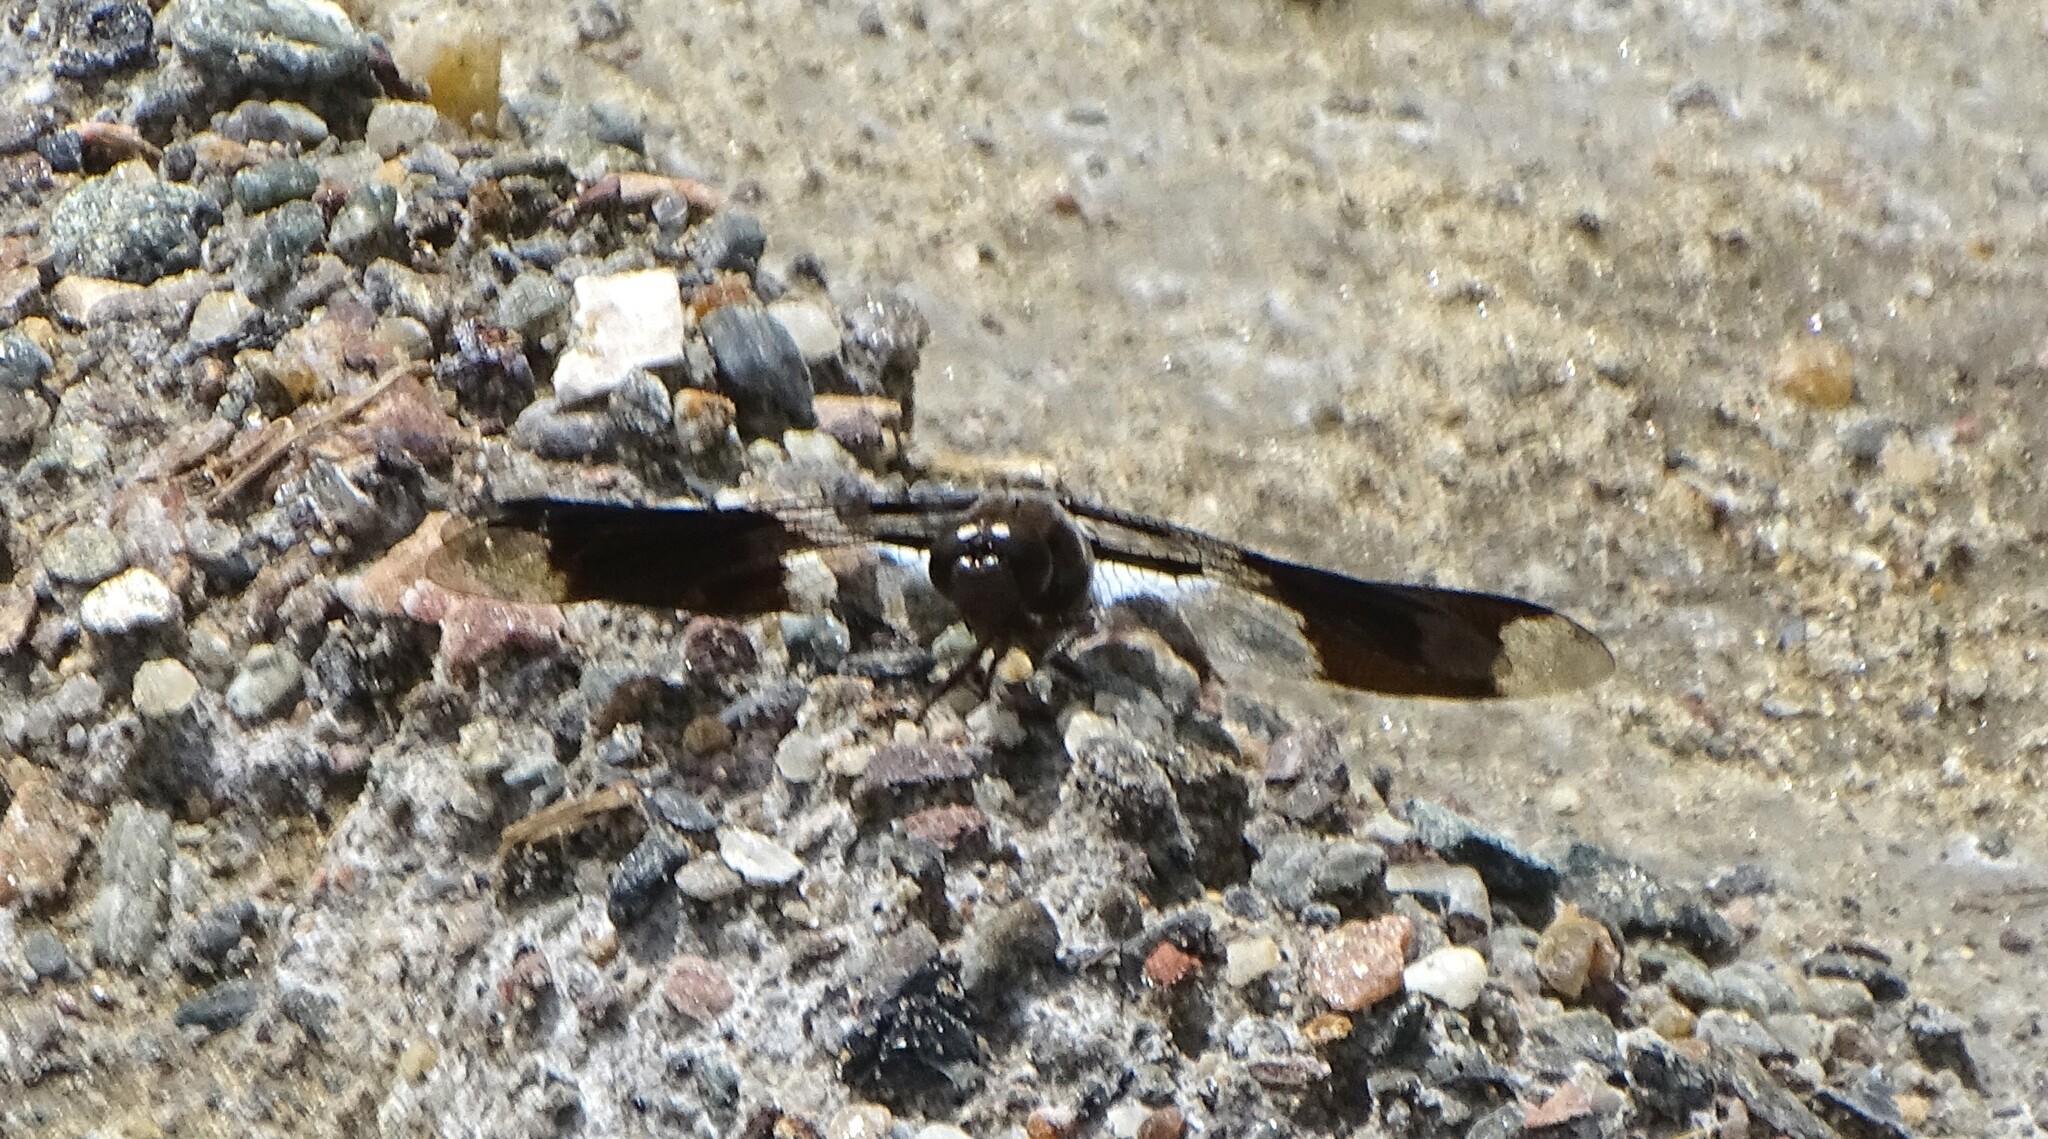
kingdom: Animalia
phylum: Arthropoda
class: Insecta
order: Odonata
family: Libellulidae
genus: Plathemis
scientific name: Plathemis lydia
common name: Common whitetail
